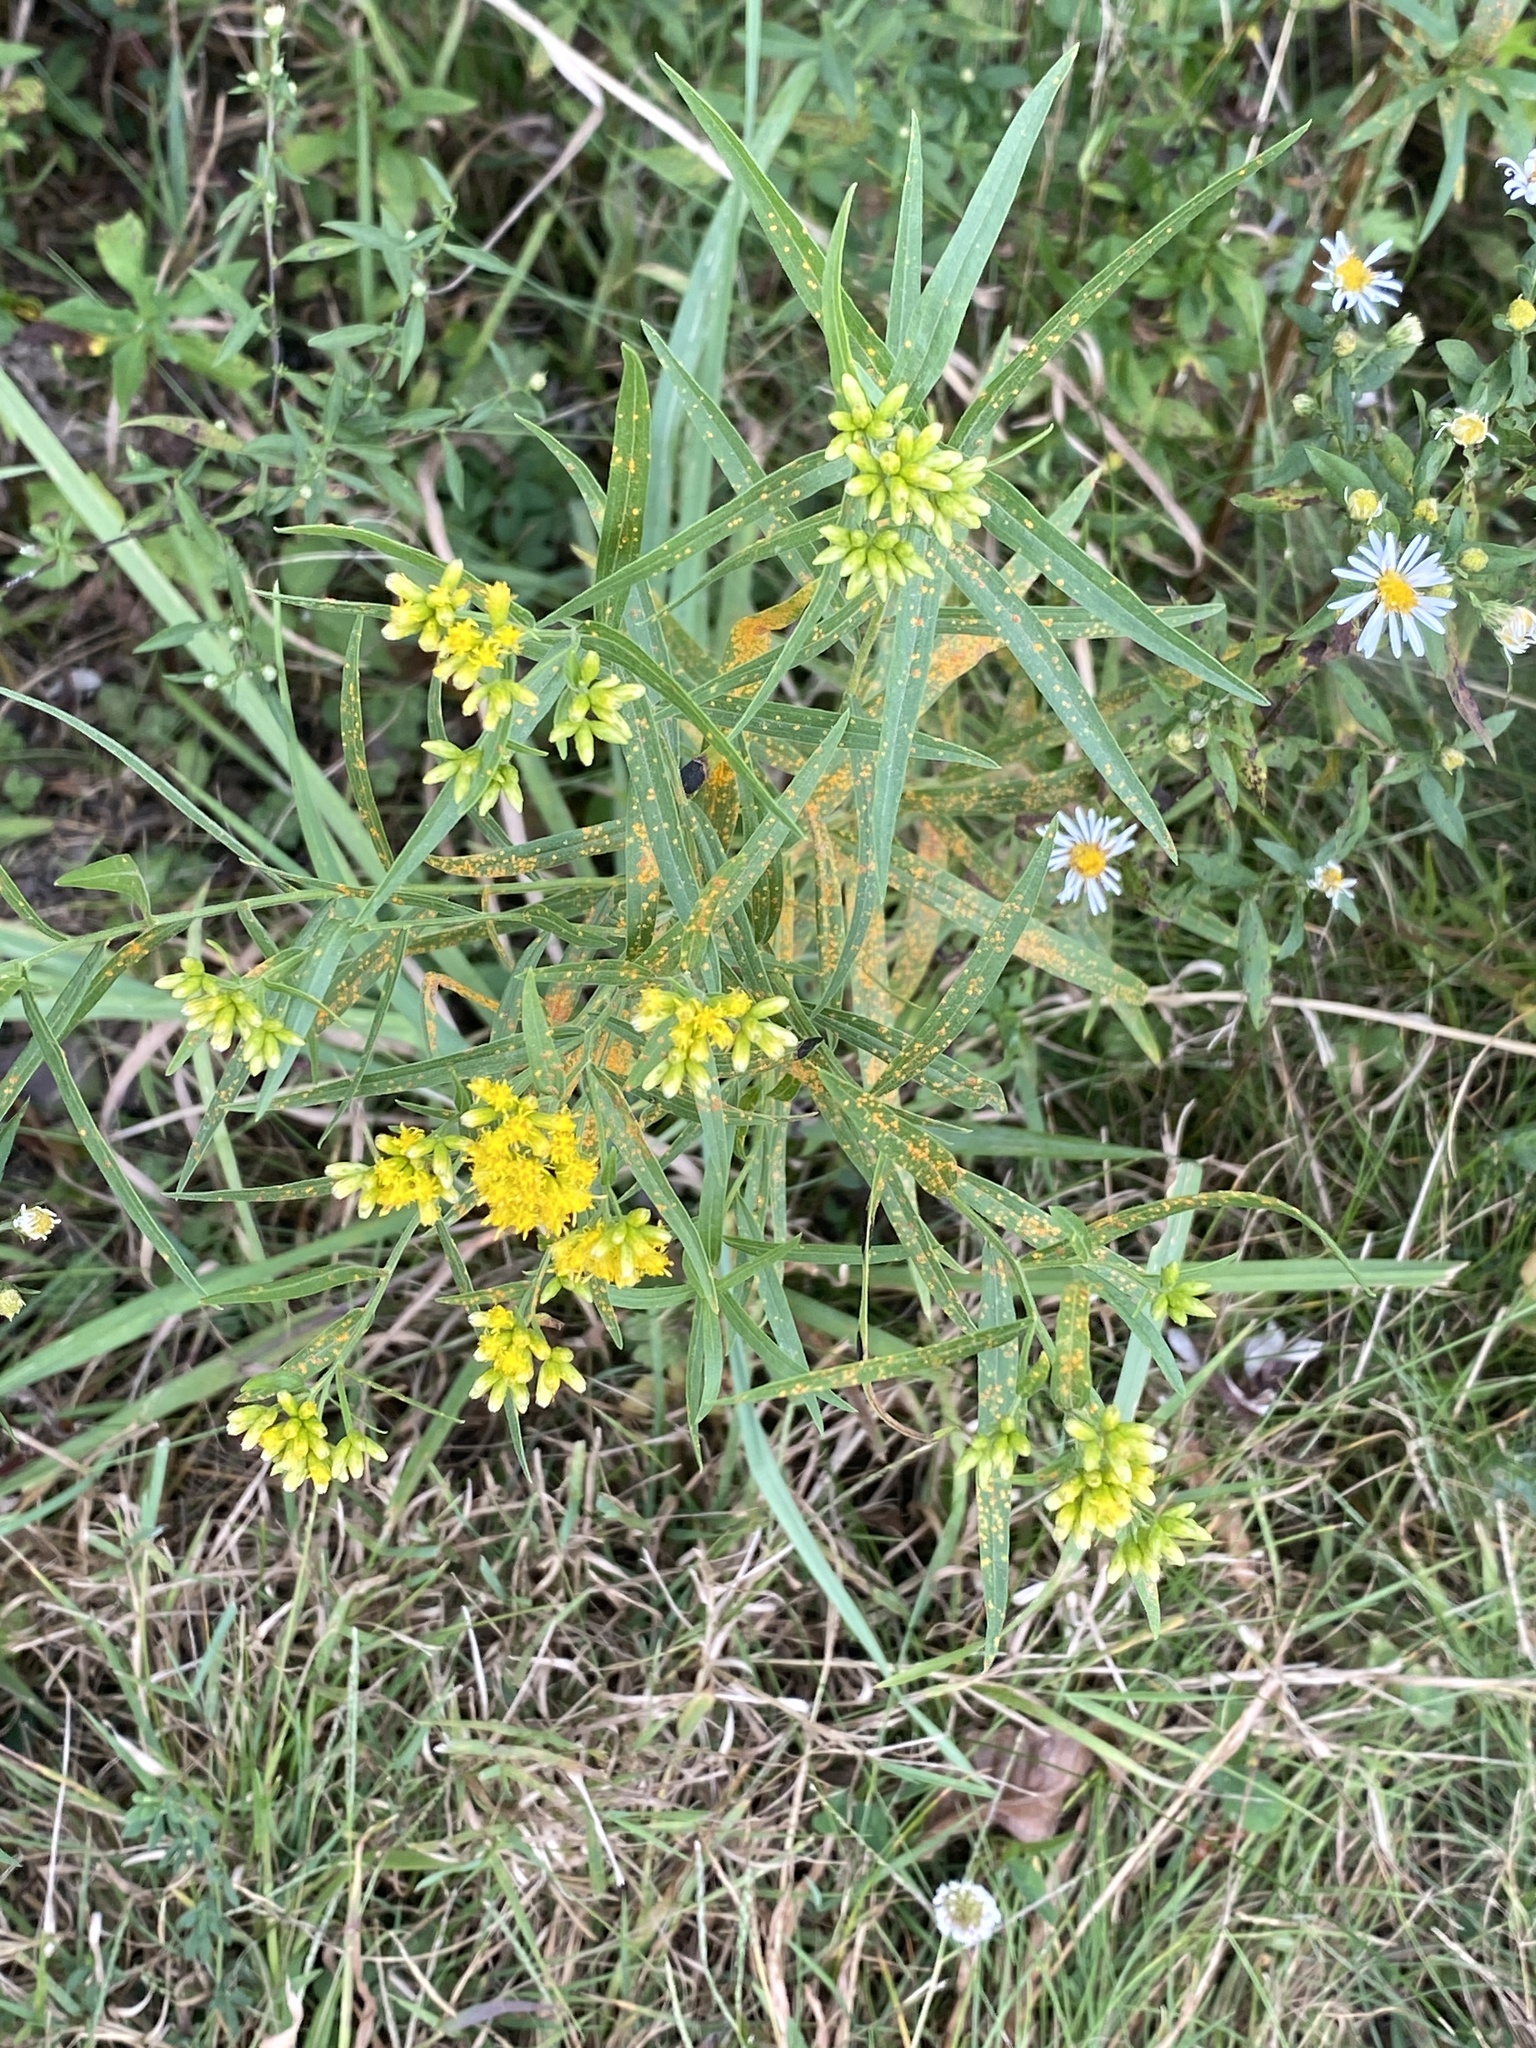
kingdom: Plantae
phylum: Tracheophyta
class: Magnoliopsida
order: Asterales
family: Asteraceae
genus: Euthamia
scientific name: Euthamia graminifolia
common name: Common goldentop
